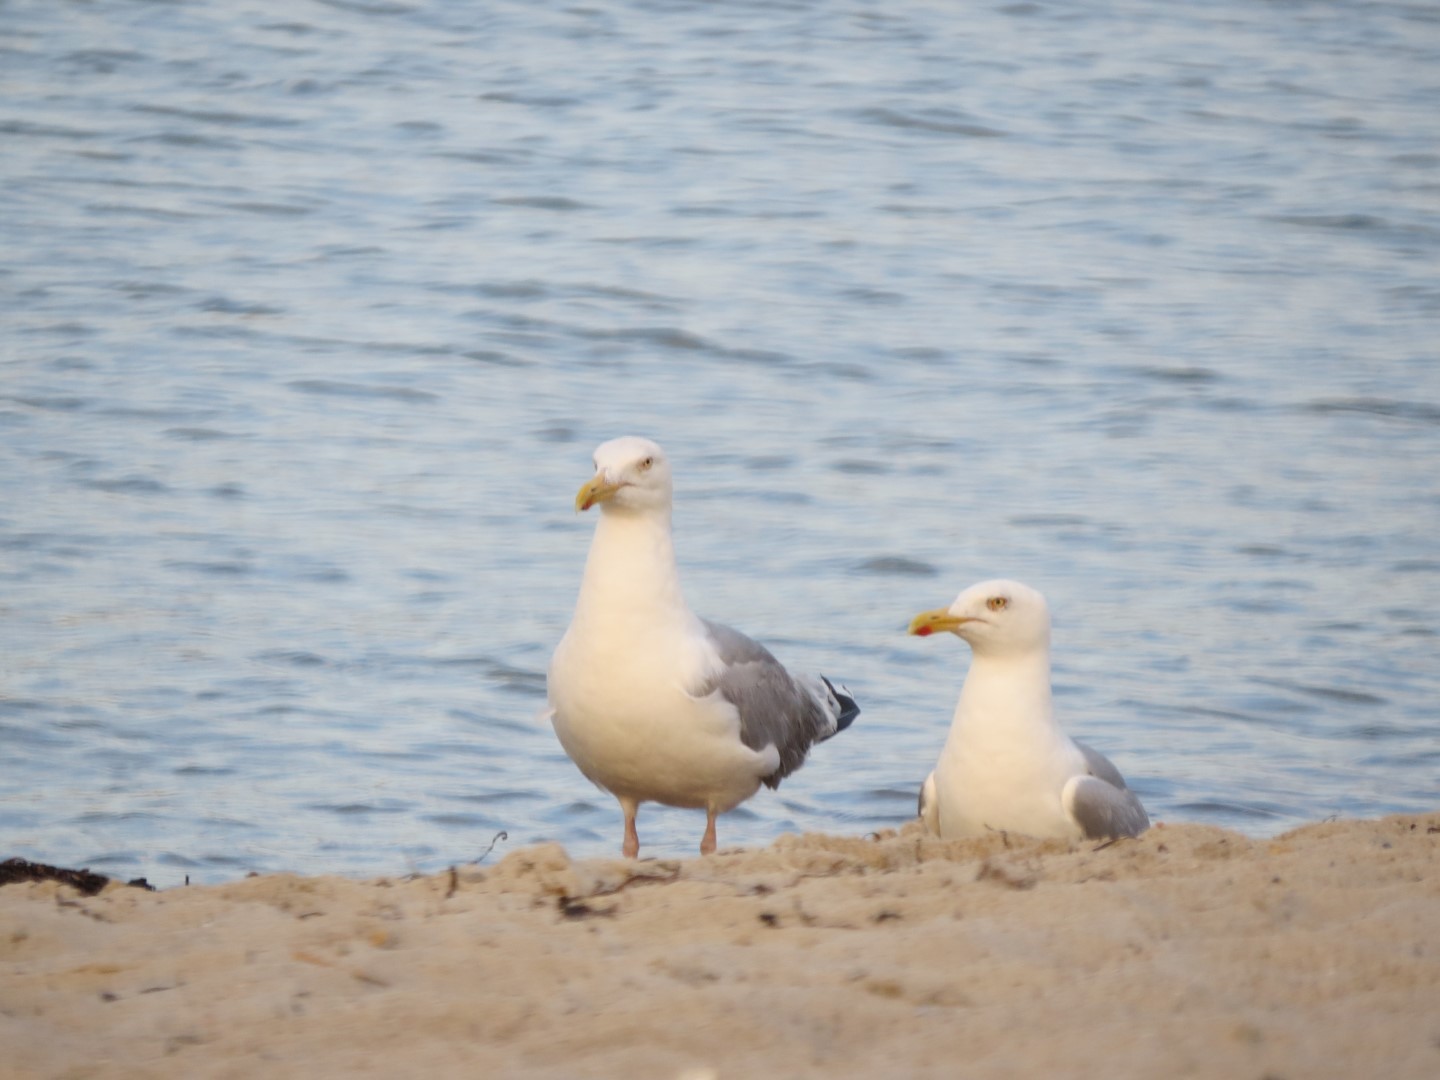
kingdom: Animalia
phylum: Chordata
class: Aves
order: Charadriiformes
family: Laridae
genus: Larus
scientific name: Larus argentatus
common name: Herring gull
